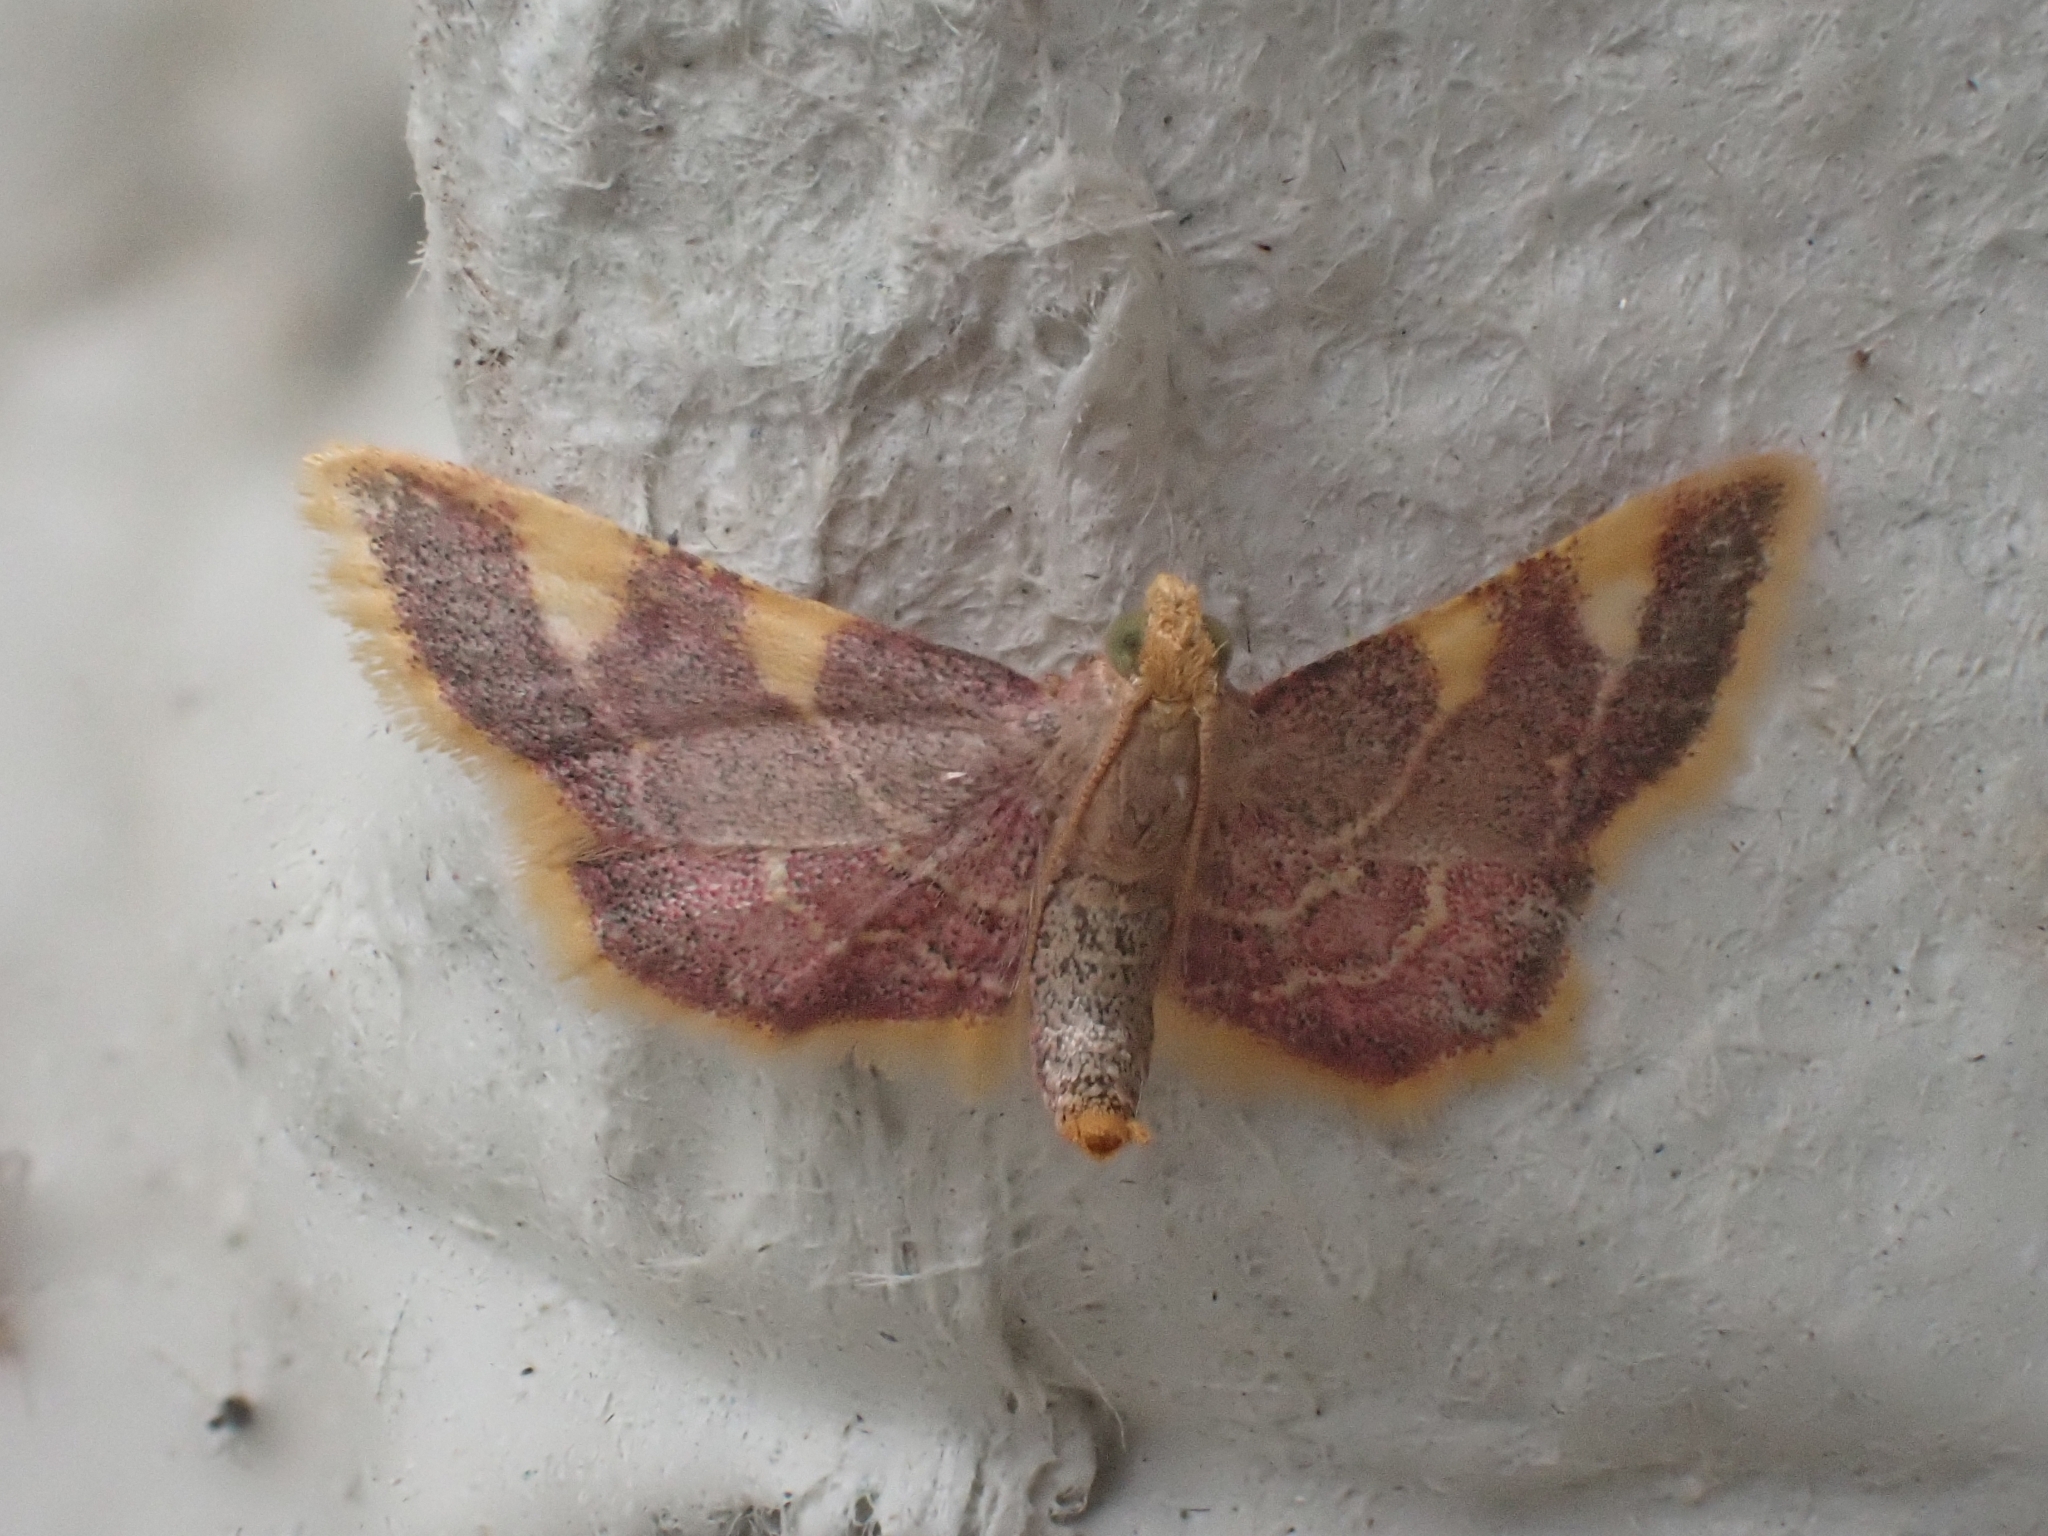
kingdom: Animalia
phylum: Arthropoda
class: Insecta
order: Lepidoptera
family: Pyralidae
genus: Hypsopygia
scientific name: Hypsopygia costalis
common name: Gold triangle
